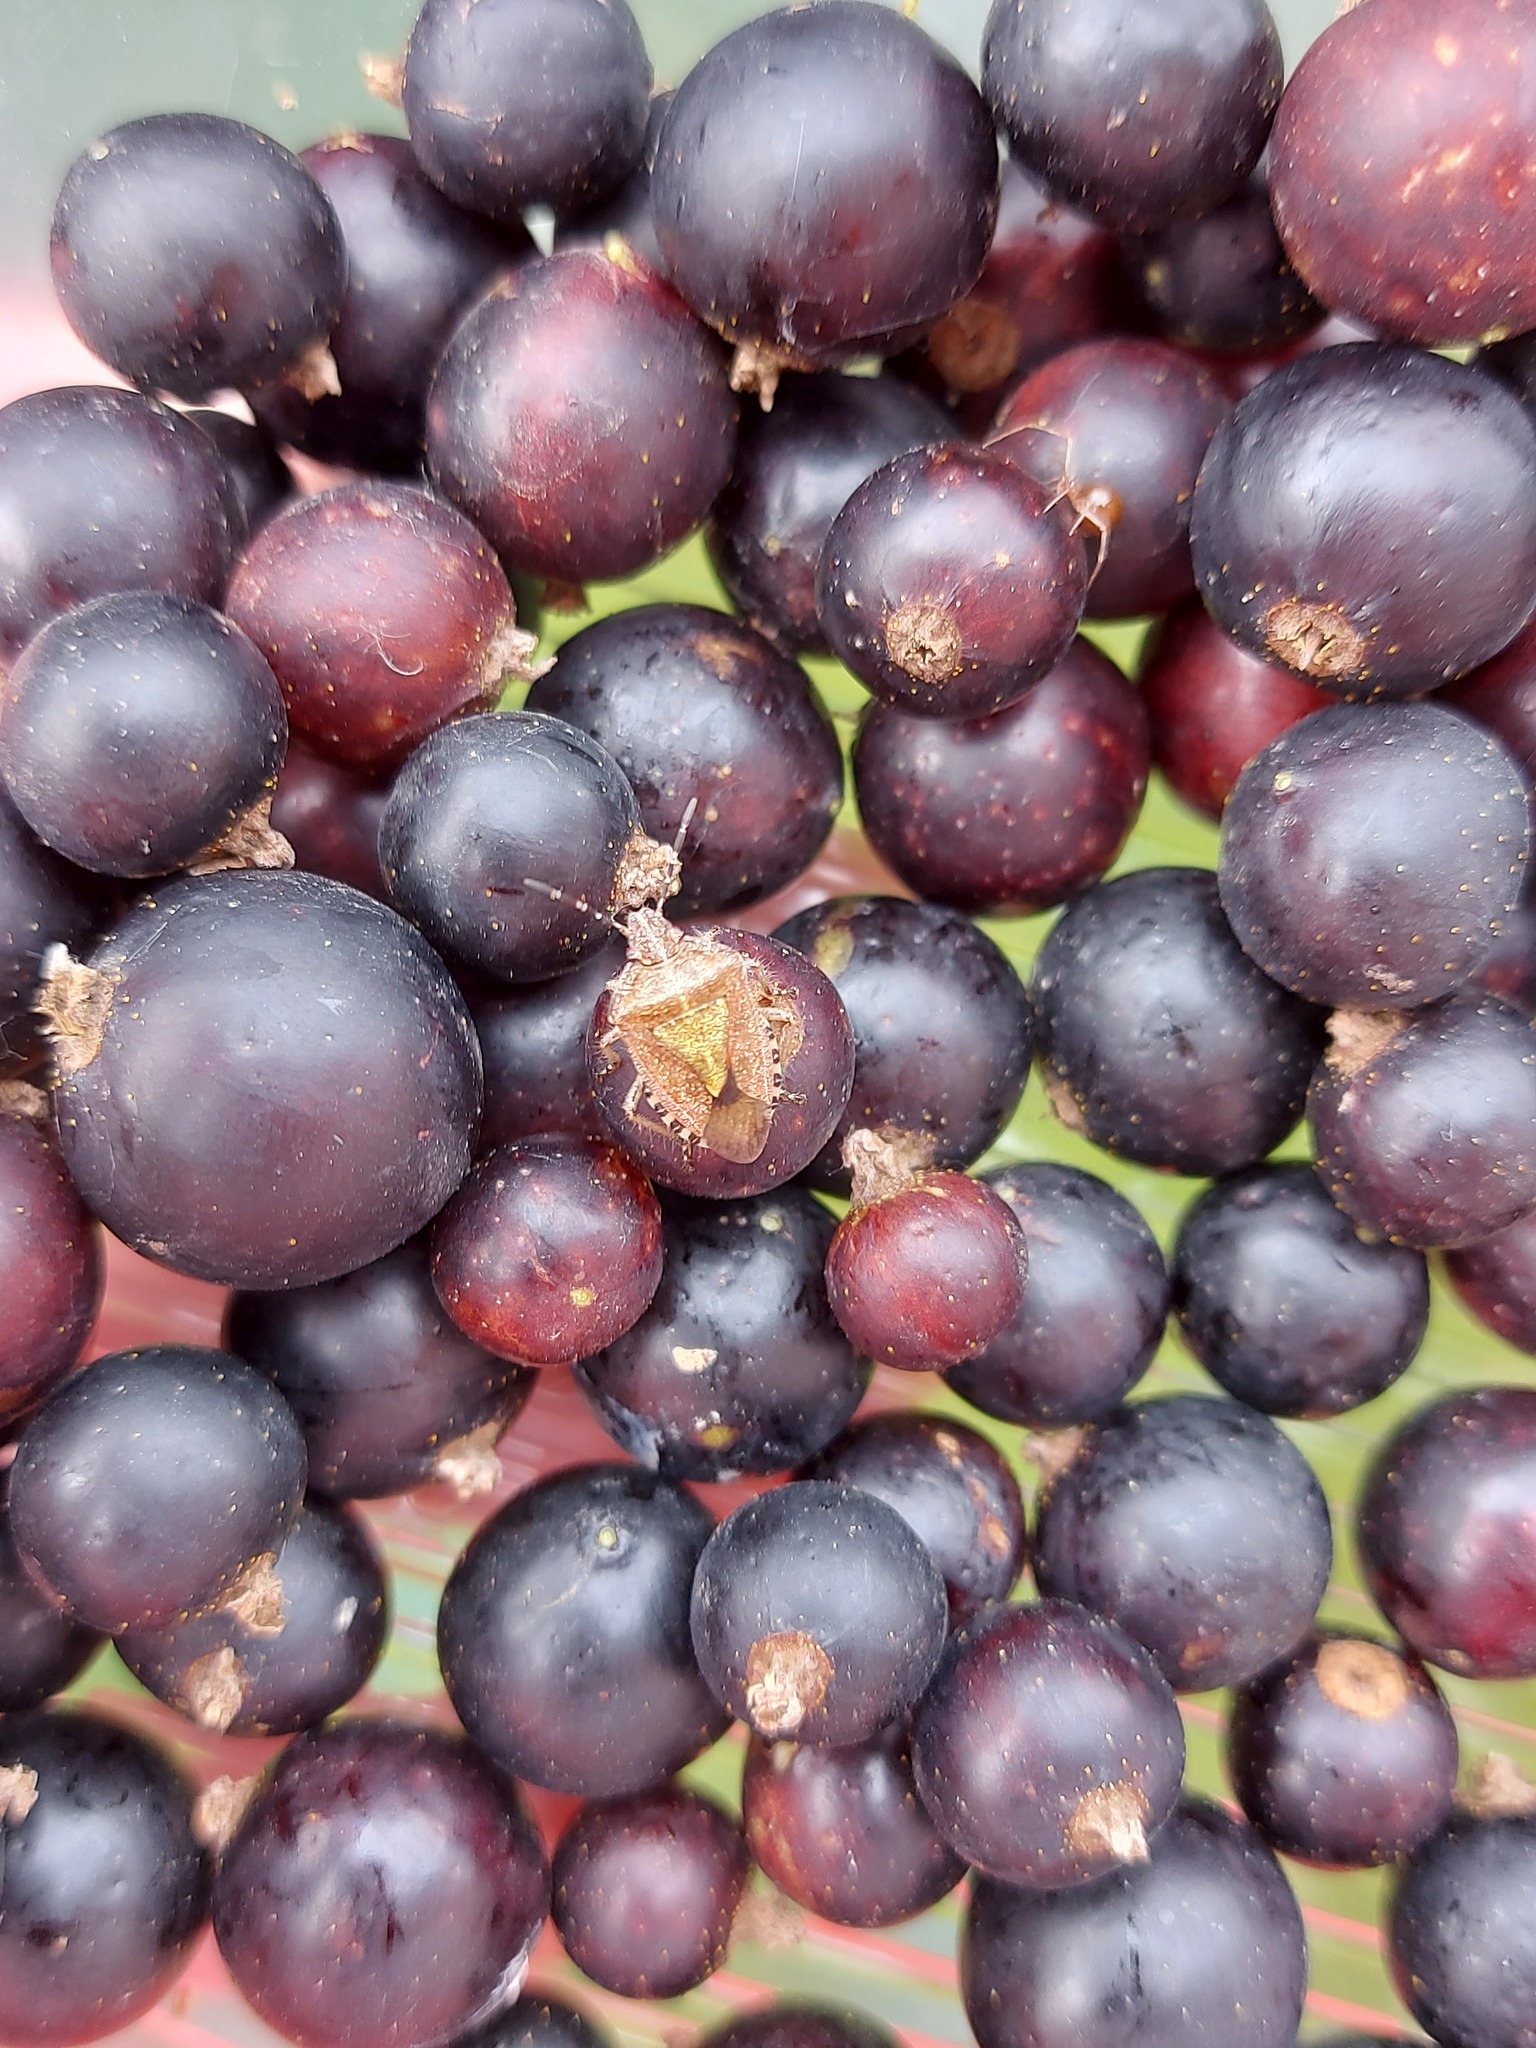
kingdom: Animalia
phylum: Arthropoda
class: Insecta
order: Hemiptera
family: Pentatomidae
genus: Dolycoris
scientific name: Dolycoris baccarum
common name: Sloe bug
